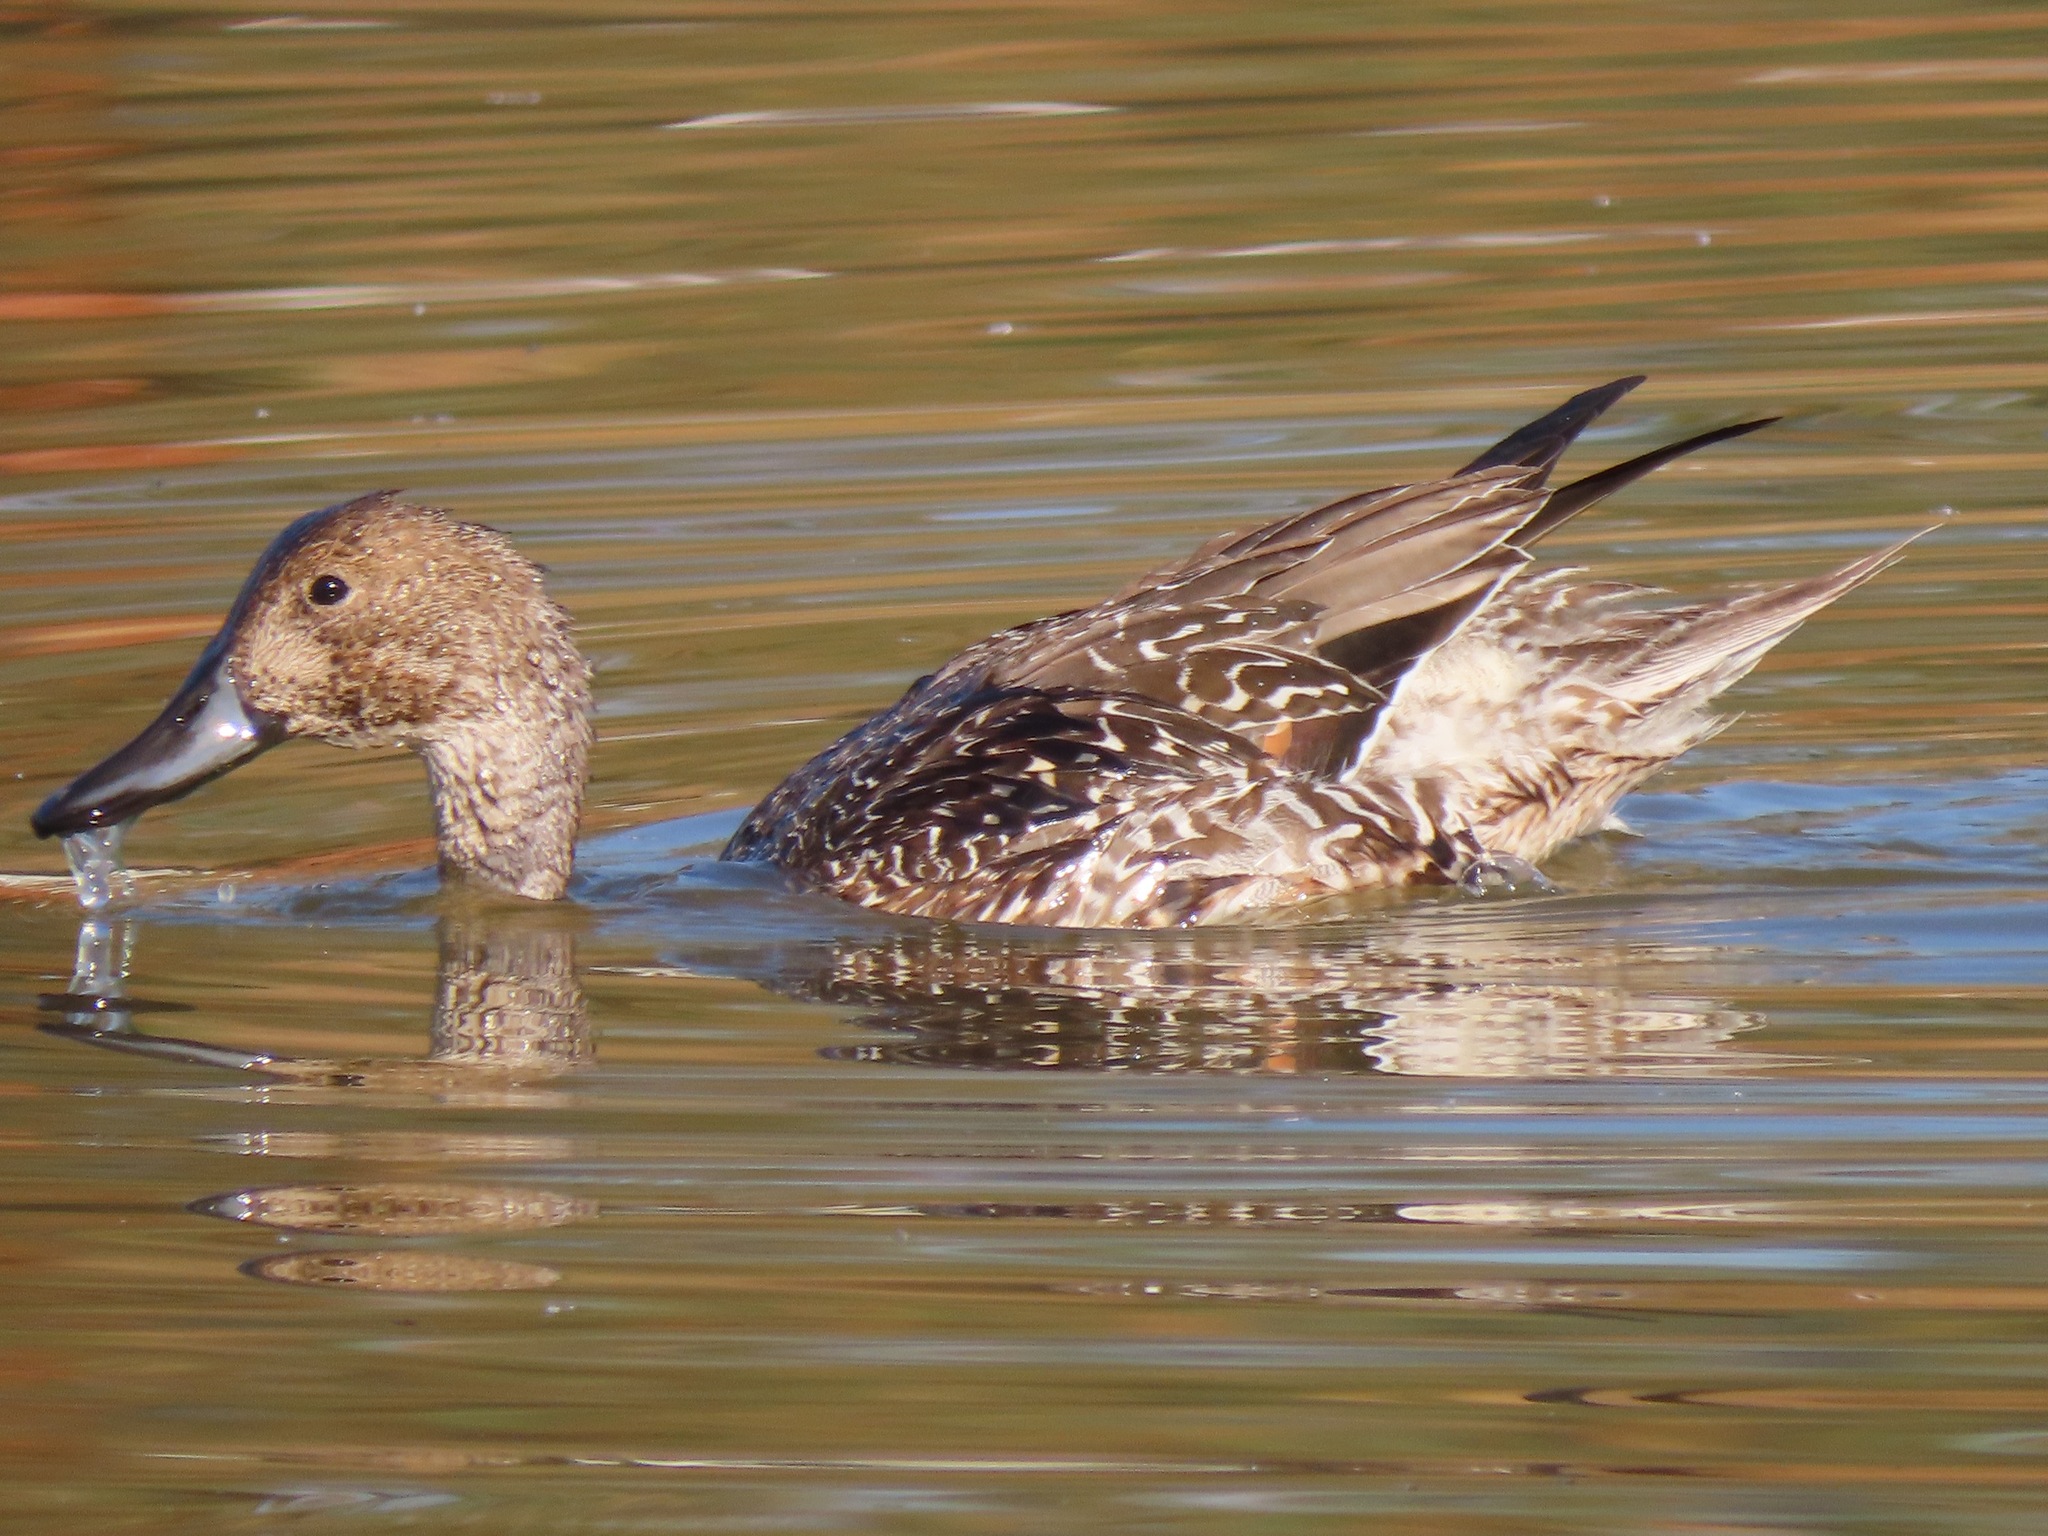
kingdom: Animalia
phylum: Chordata
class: Aves
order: Anseriformes
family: Anatidae
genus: Anas
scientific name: Anas acuta
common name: Northern pintail
